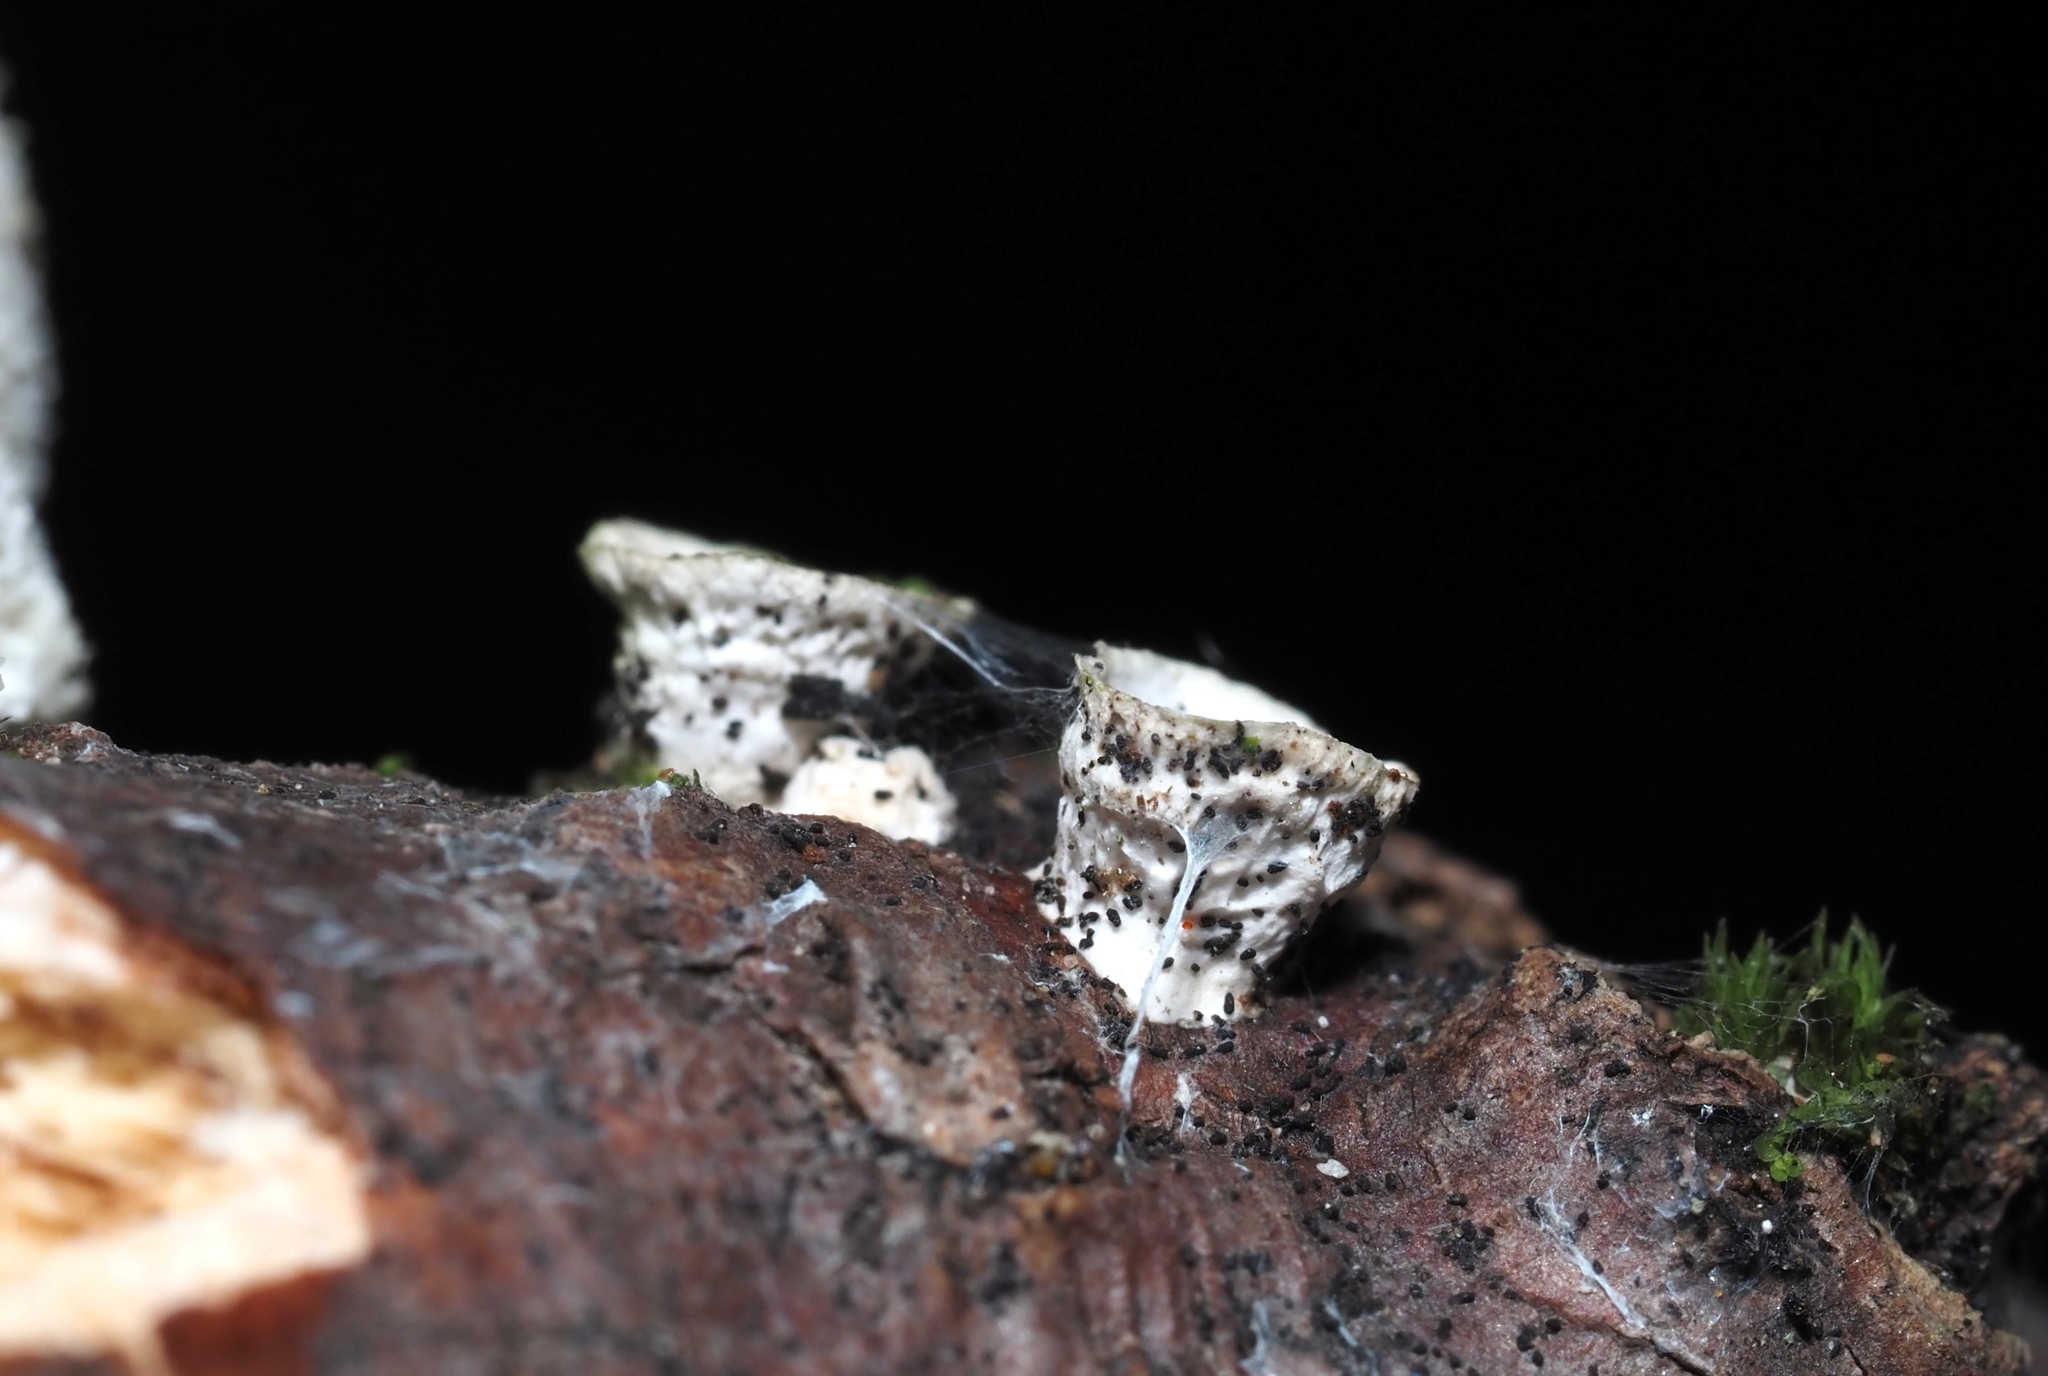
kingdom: Fungi
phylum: Basidiomycota
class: Agaricomycetes
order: Polyporales
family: Polyporaceae
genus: Poronidulus
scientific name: Poronidulus conchifer
